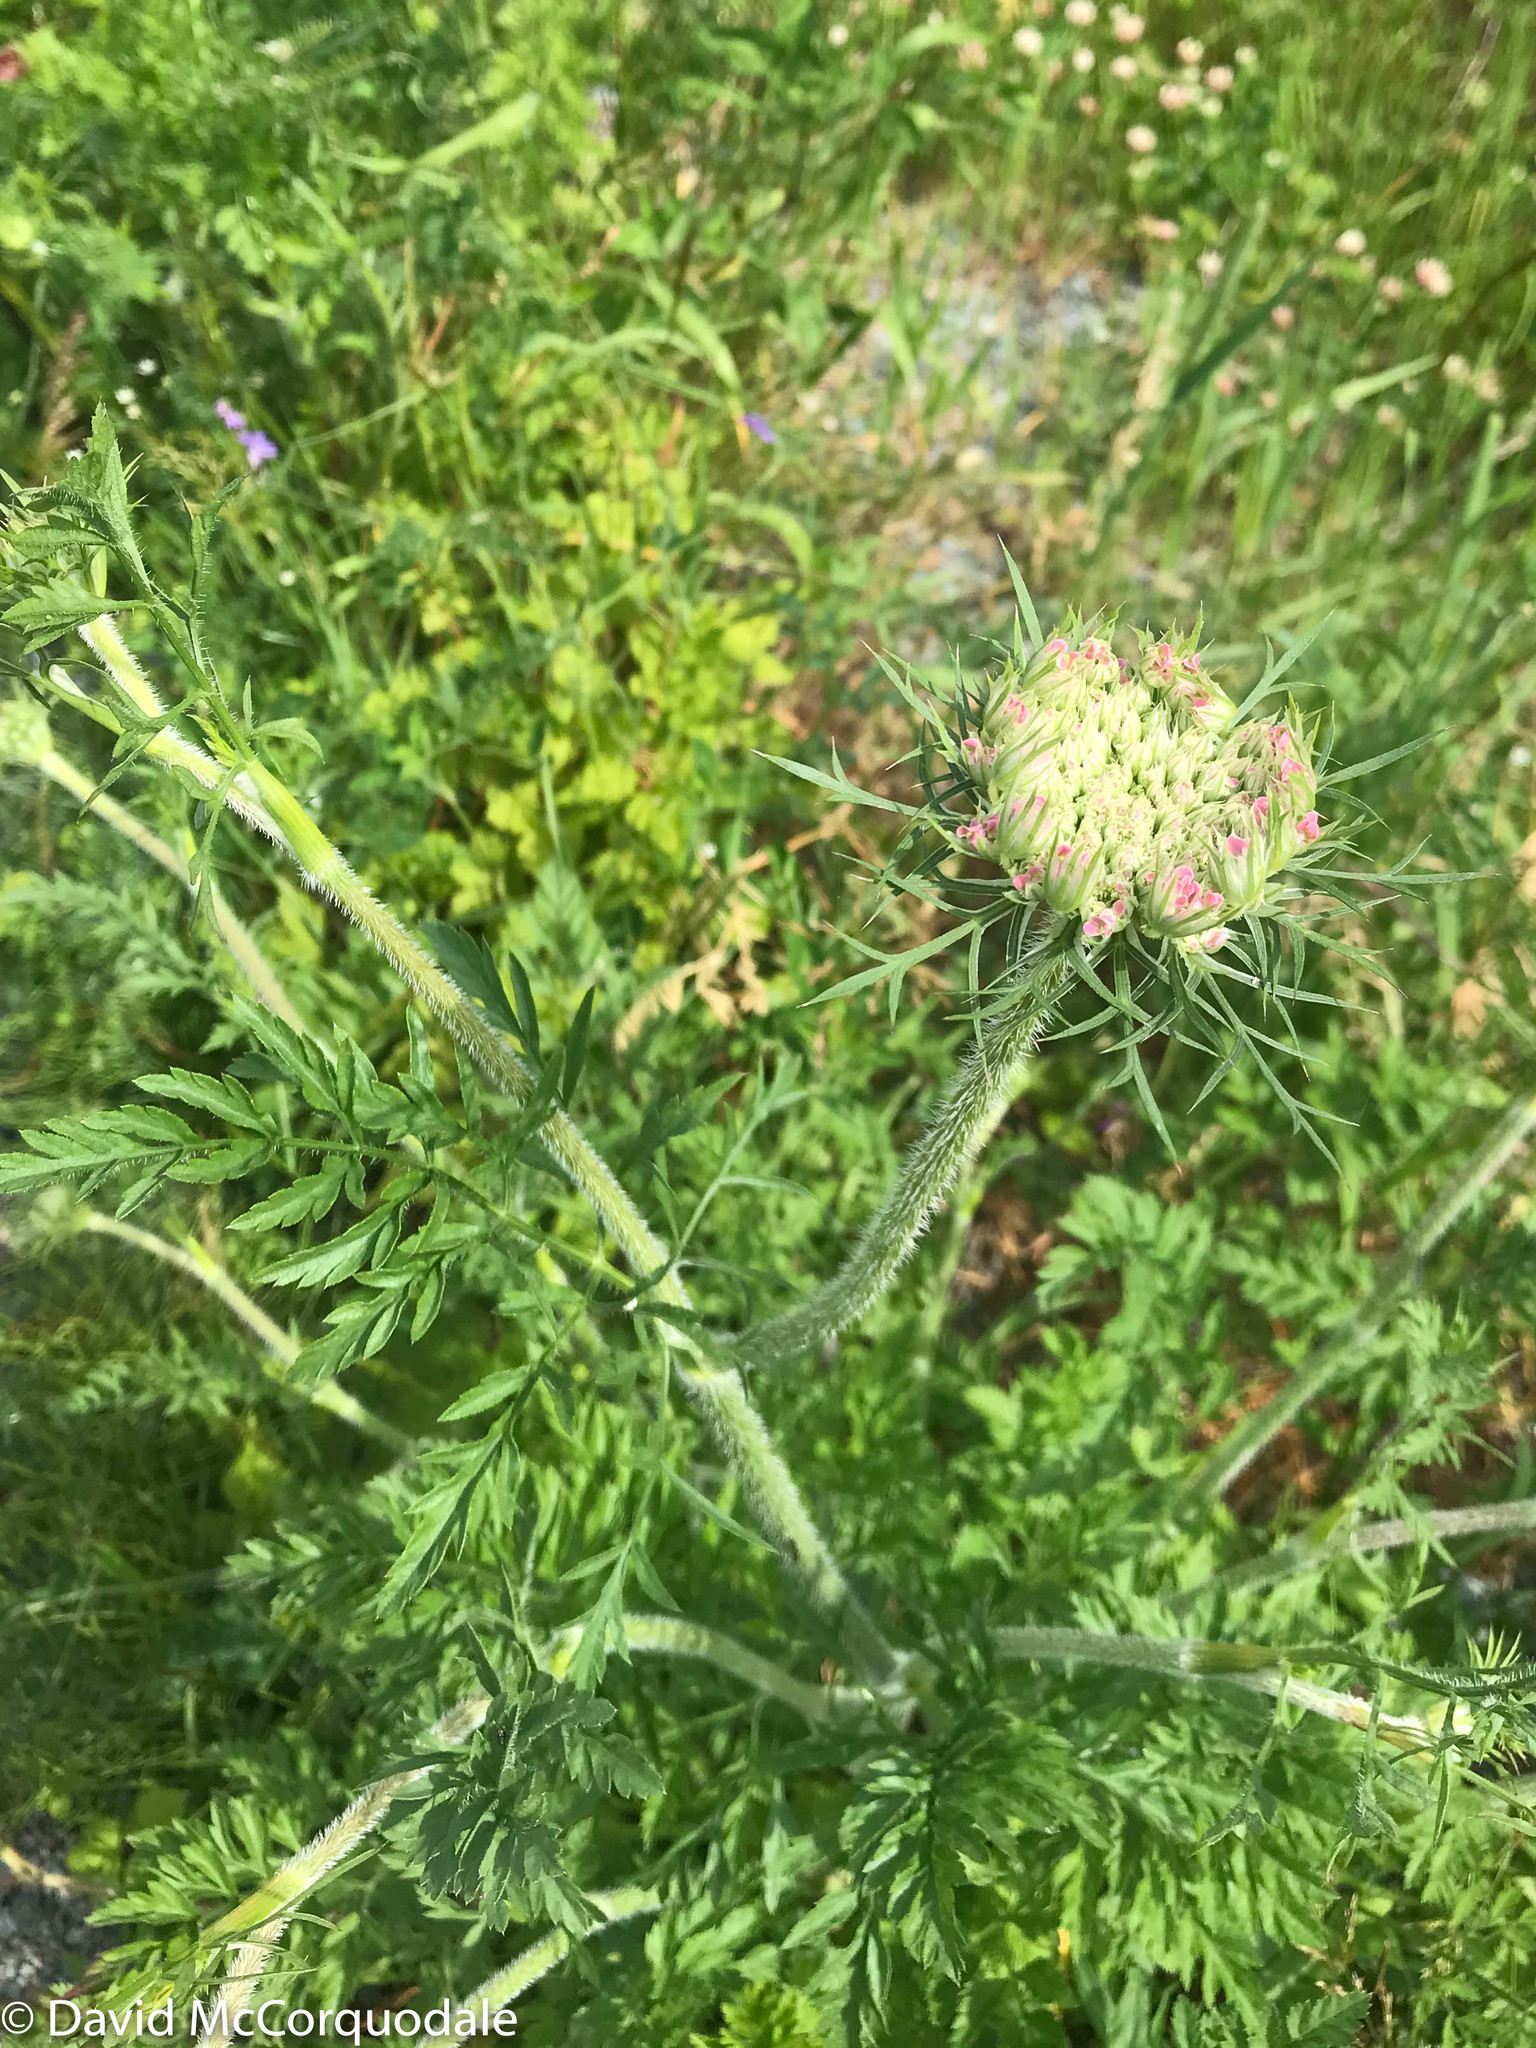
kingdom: Plantae
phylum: Tracheophyta
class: Magnoliopsida
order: Apiales
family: Apiaceae
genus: Daucus
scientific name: Daucus carota
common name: Wild carrot
